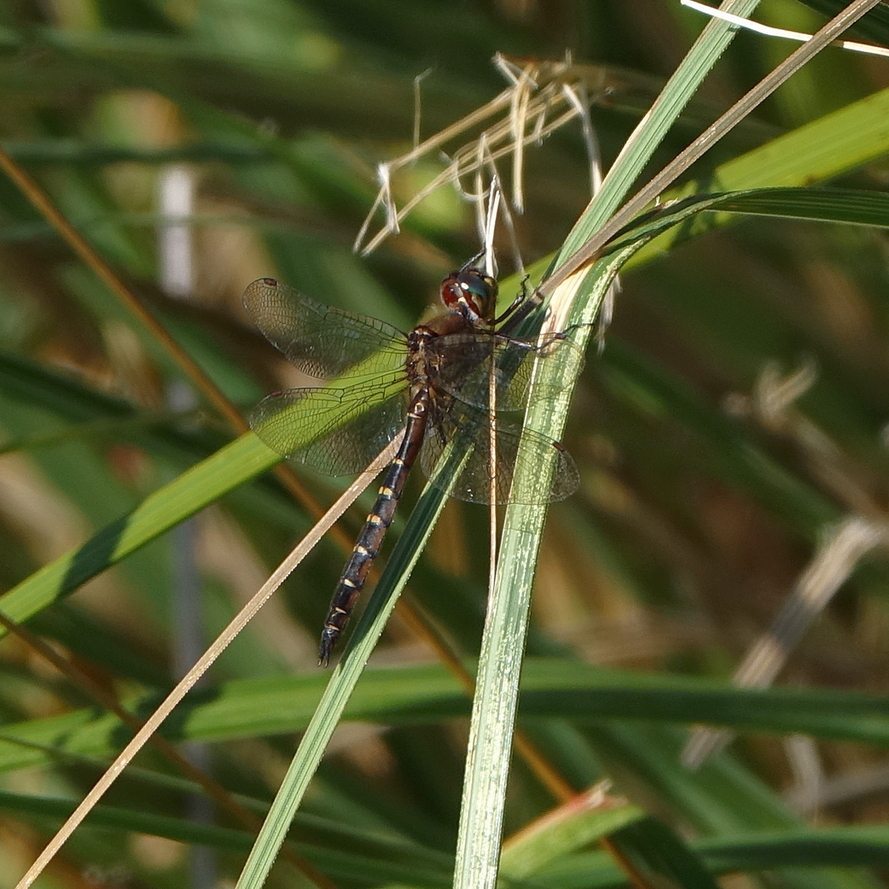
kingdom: Animalia
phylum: Arthropoda
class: Insecta
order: Odonata
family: Corduliidae
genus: Procordulia
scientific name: Procordulia smithii
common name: Ranger dragonfly
